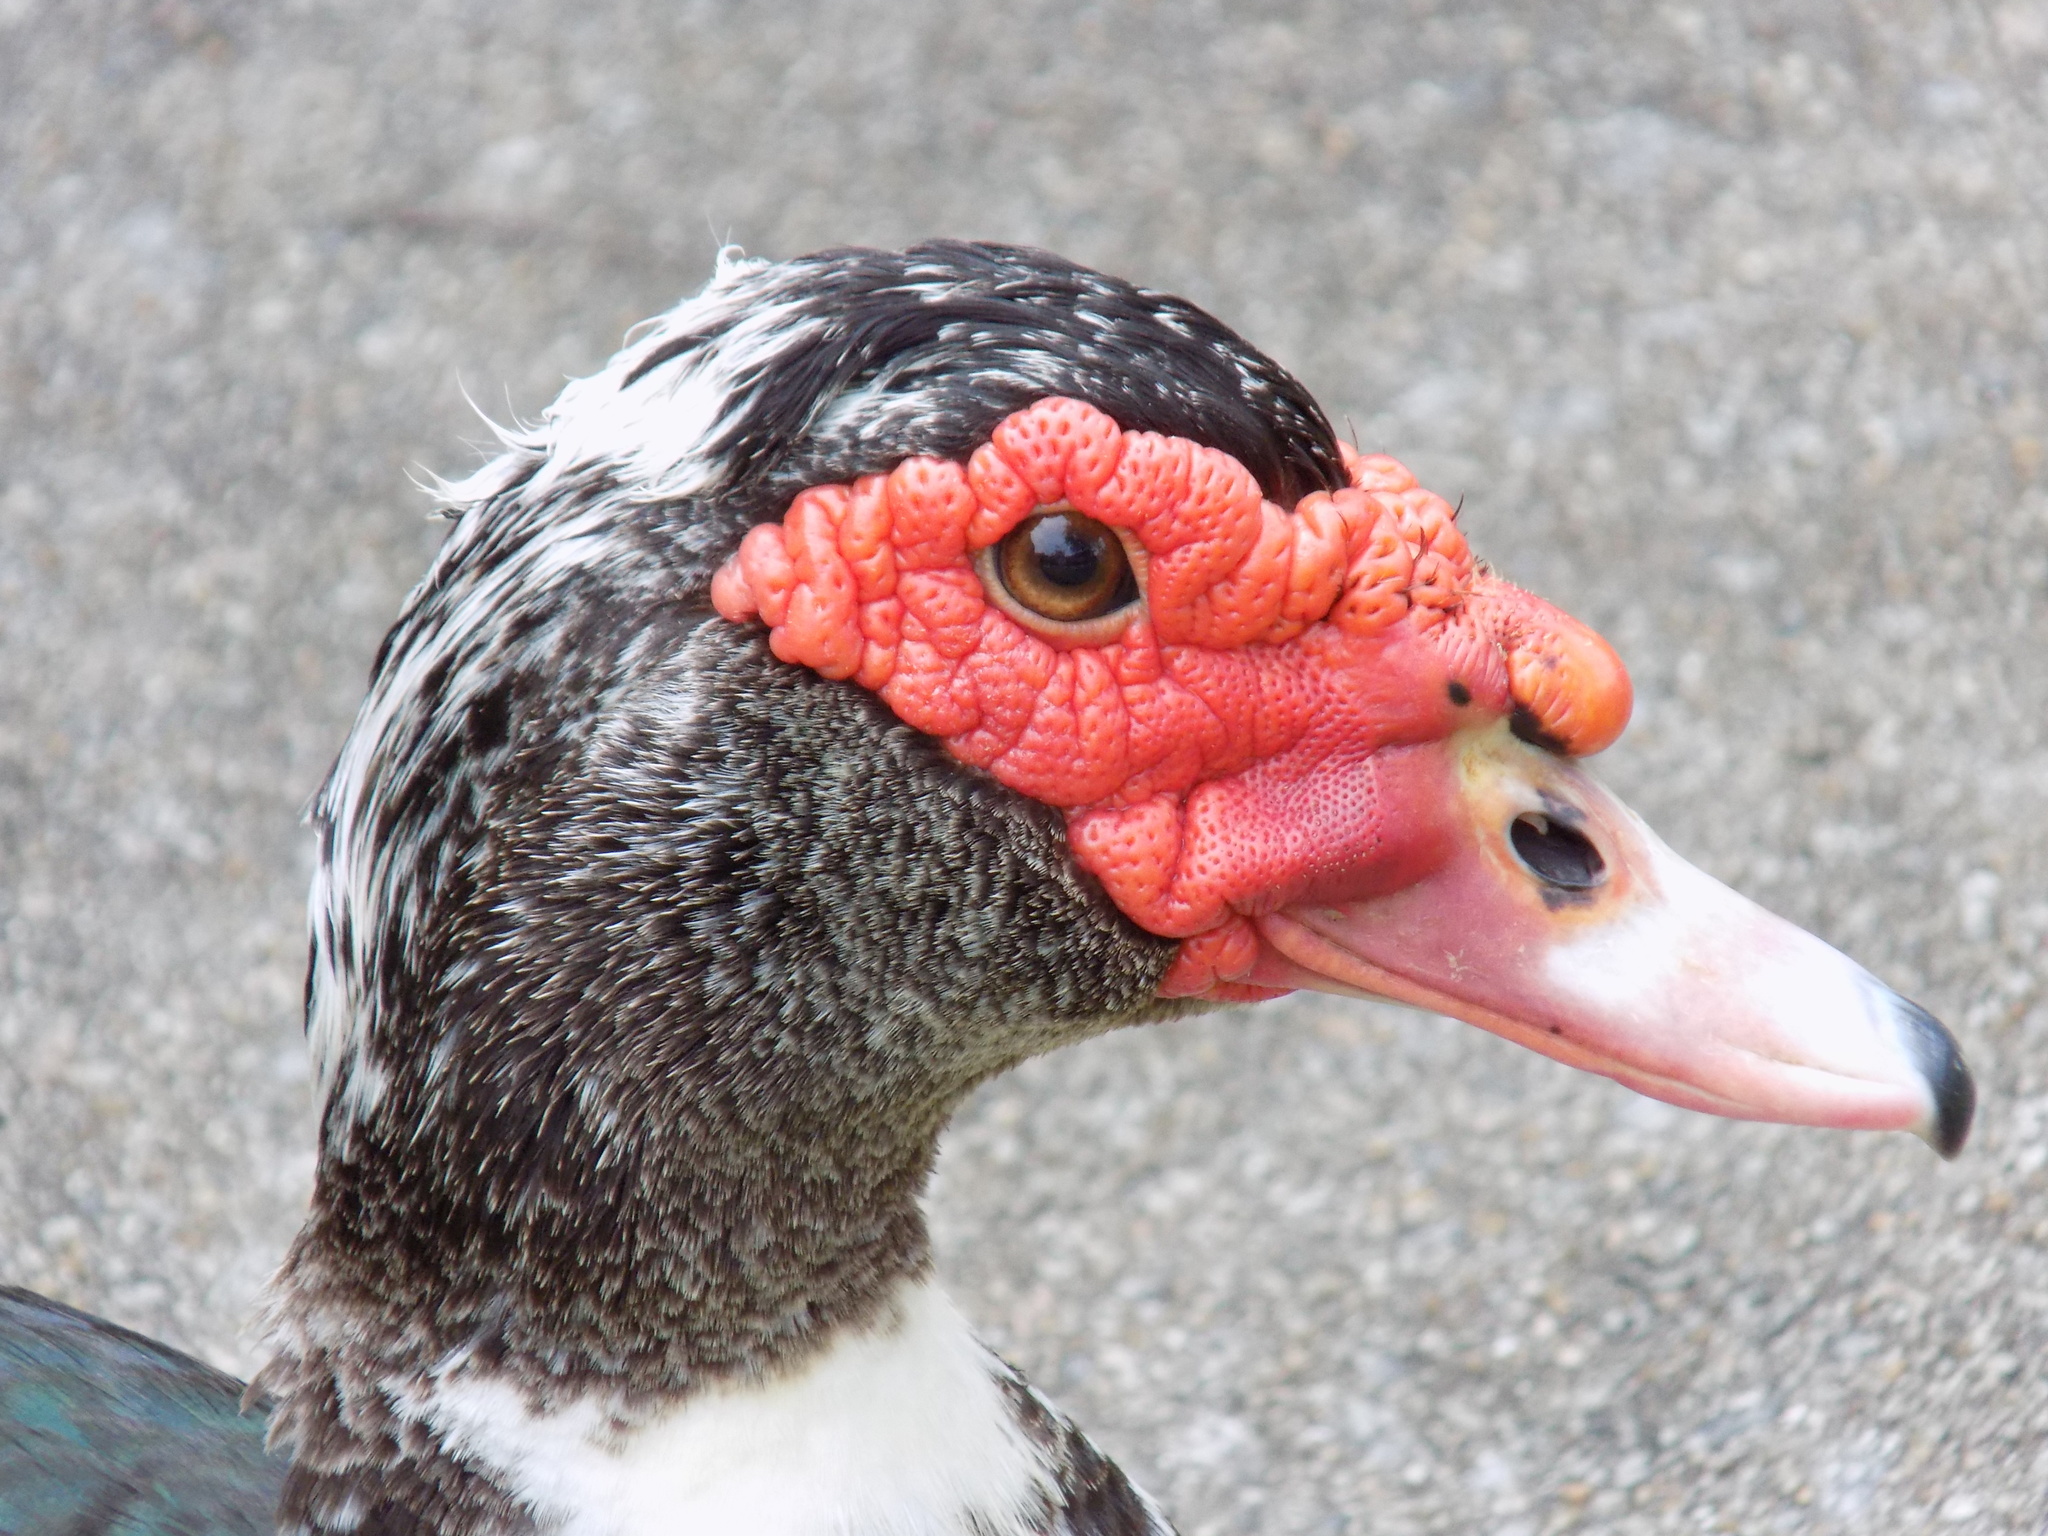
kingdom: Animalia
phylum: Chordata
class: Aves
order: Anseriformes
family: Anatidae
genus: Cairina
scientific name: Cairina moschata
